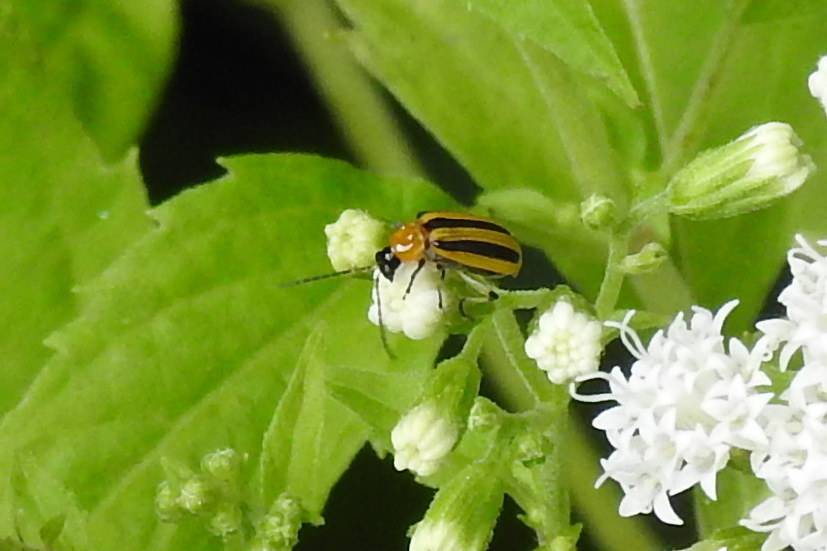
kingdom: Animalia
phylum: Arthropoda
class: Insecta
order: Coleoptera
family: Chrysomelidae
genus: Acalymma
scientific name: Acalymma vittatum
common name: Striped cucumber beetle
